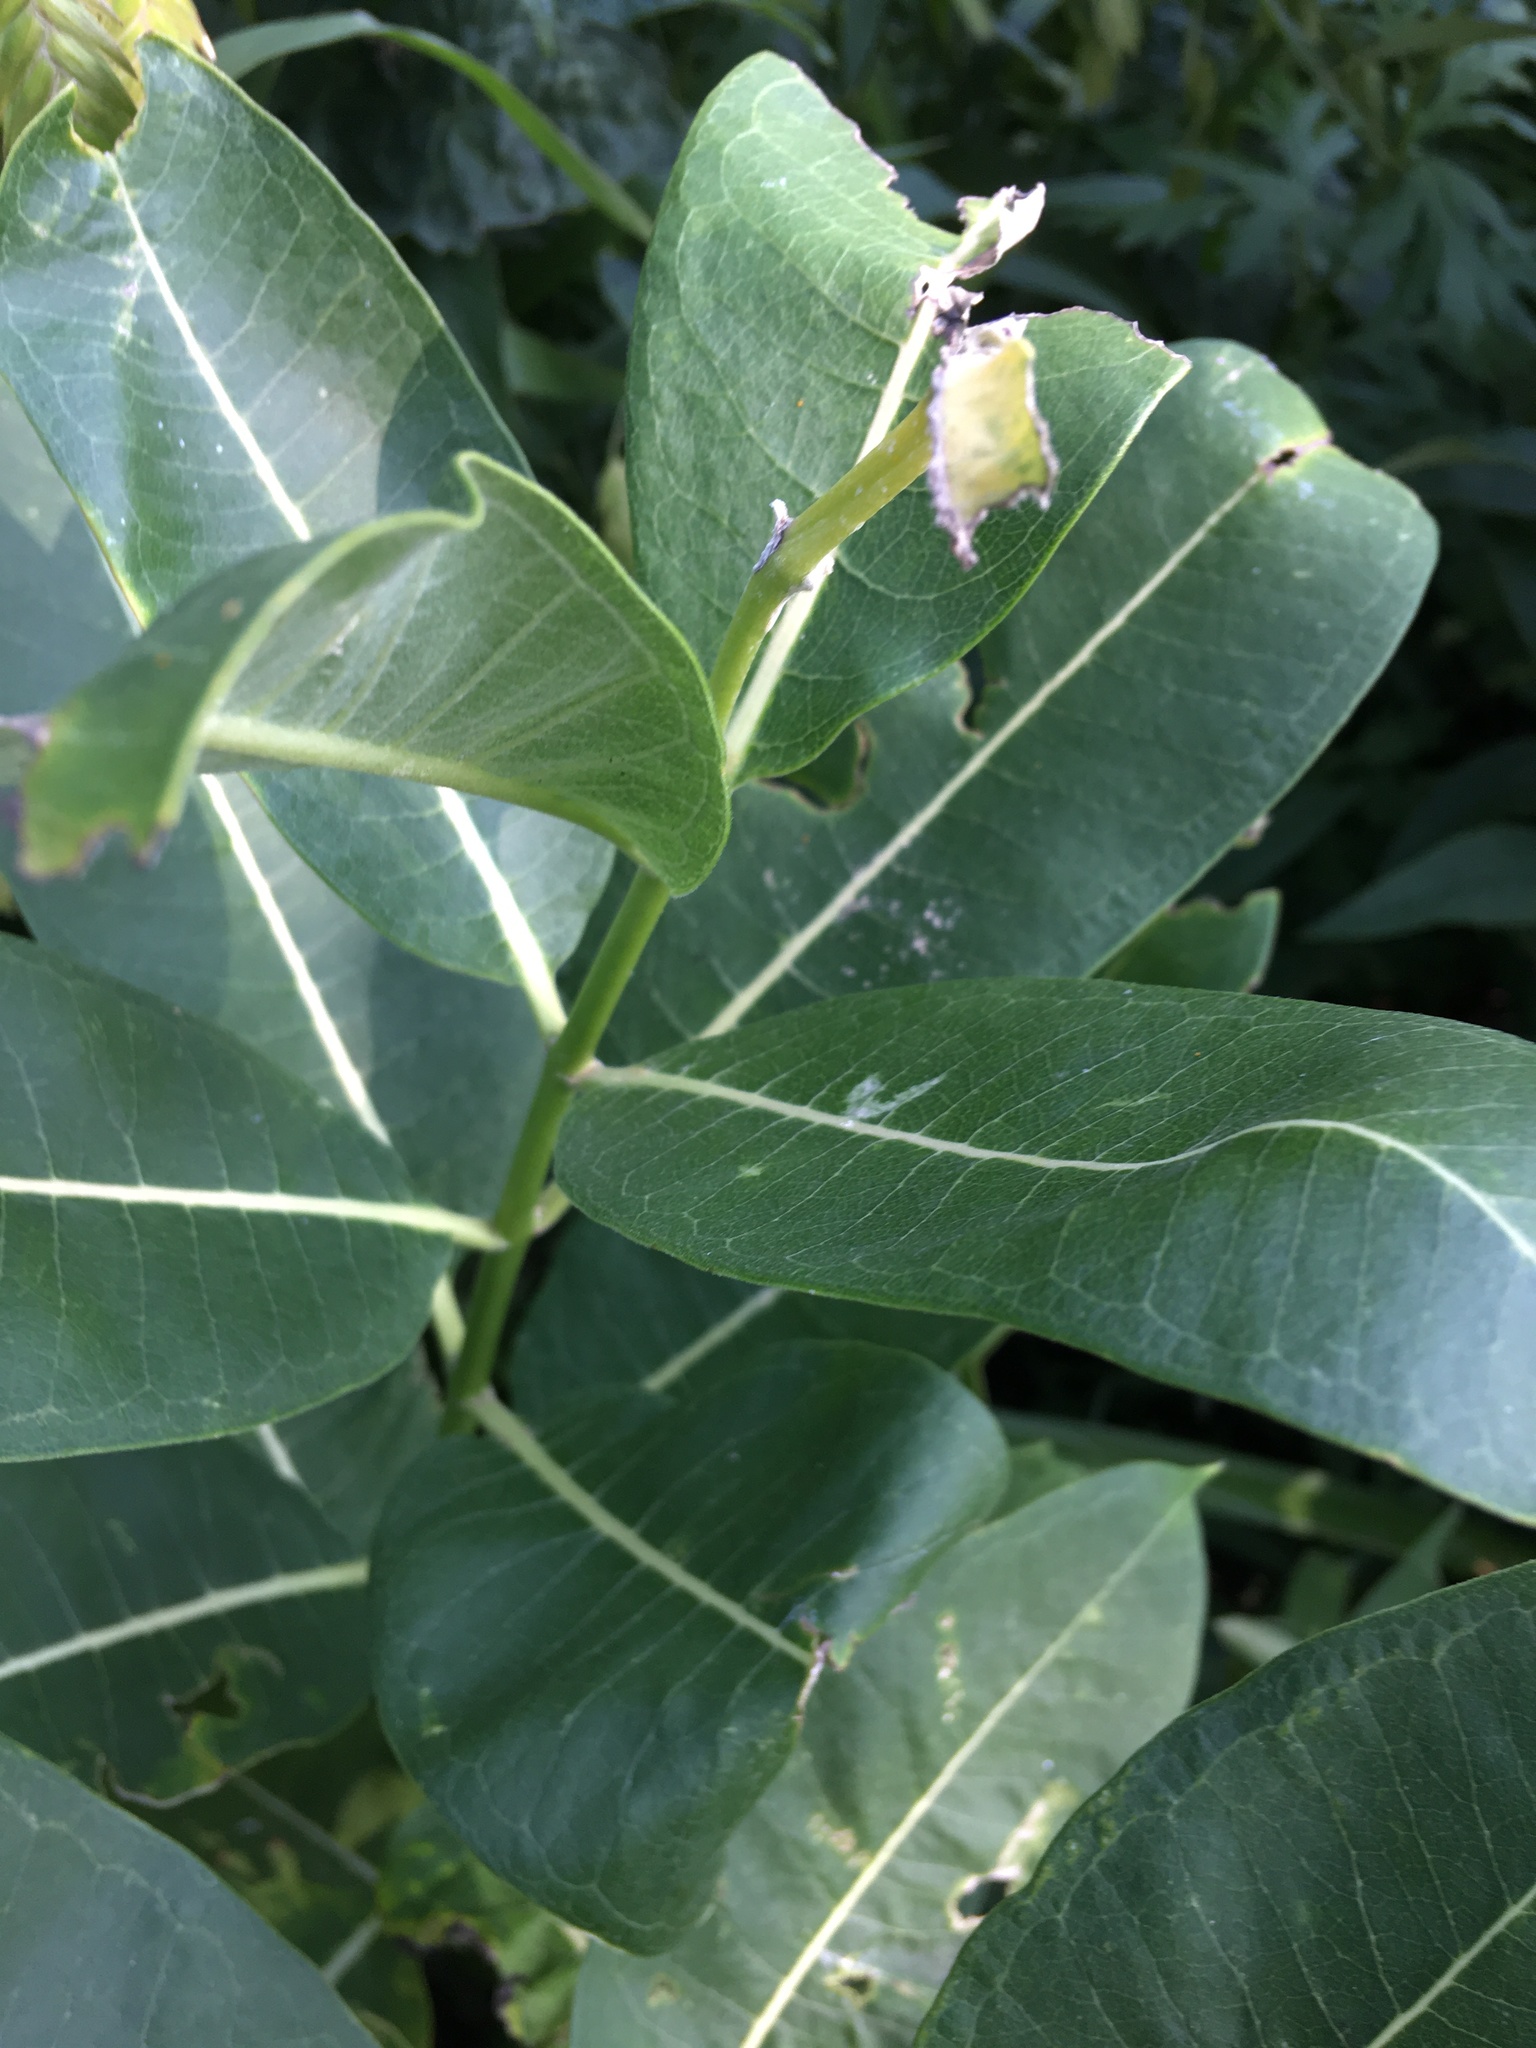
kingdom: Plantae
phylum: Tracheophyta
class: Magnoliopsida
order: Gentianales
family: Apocynaceae
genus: Asclepias
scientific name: Asclepias syriaca
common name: Common milkweed
